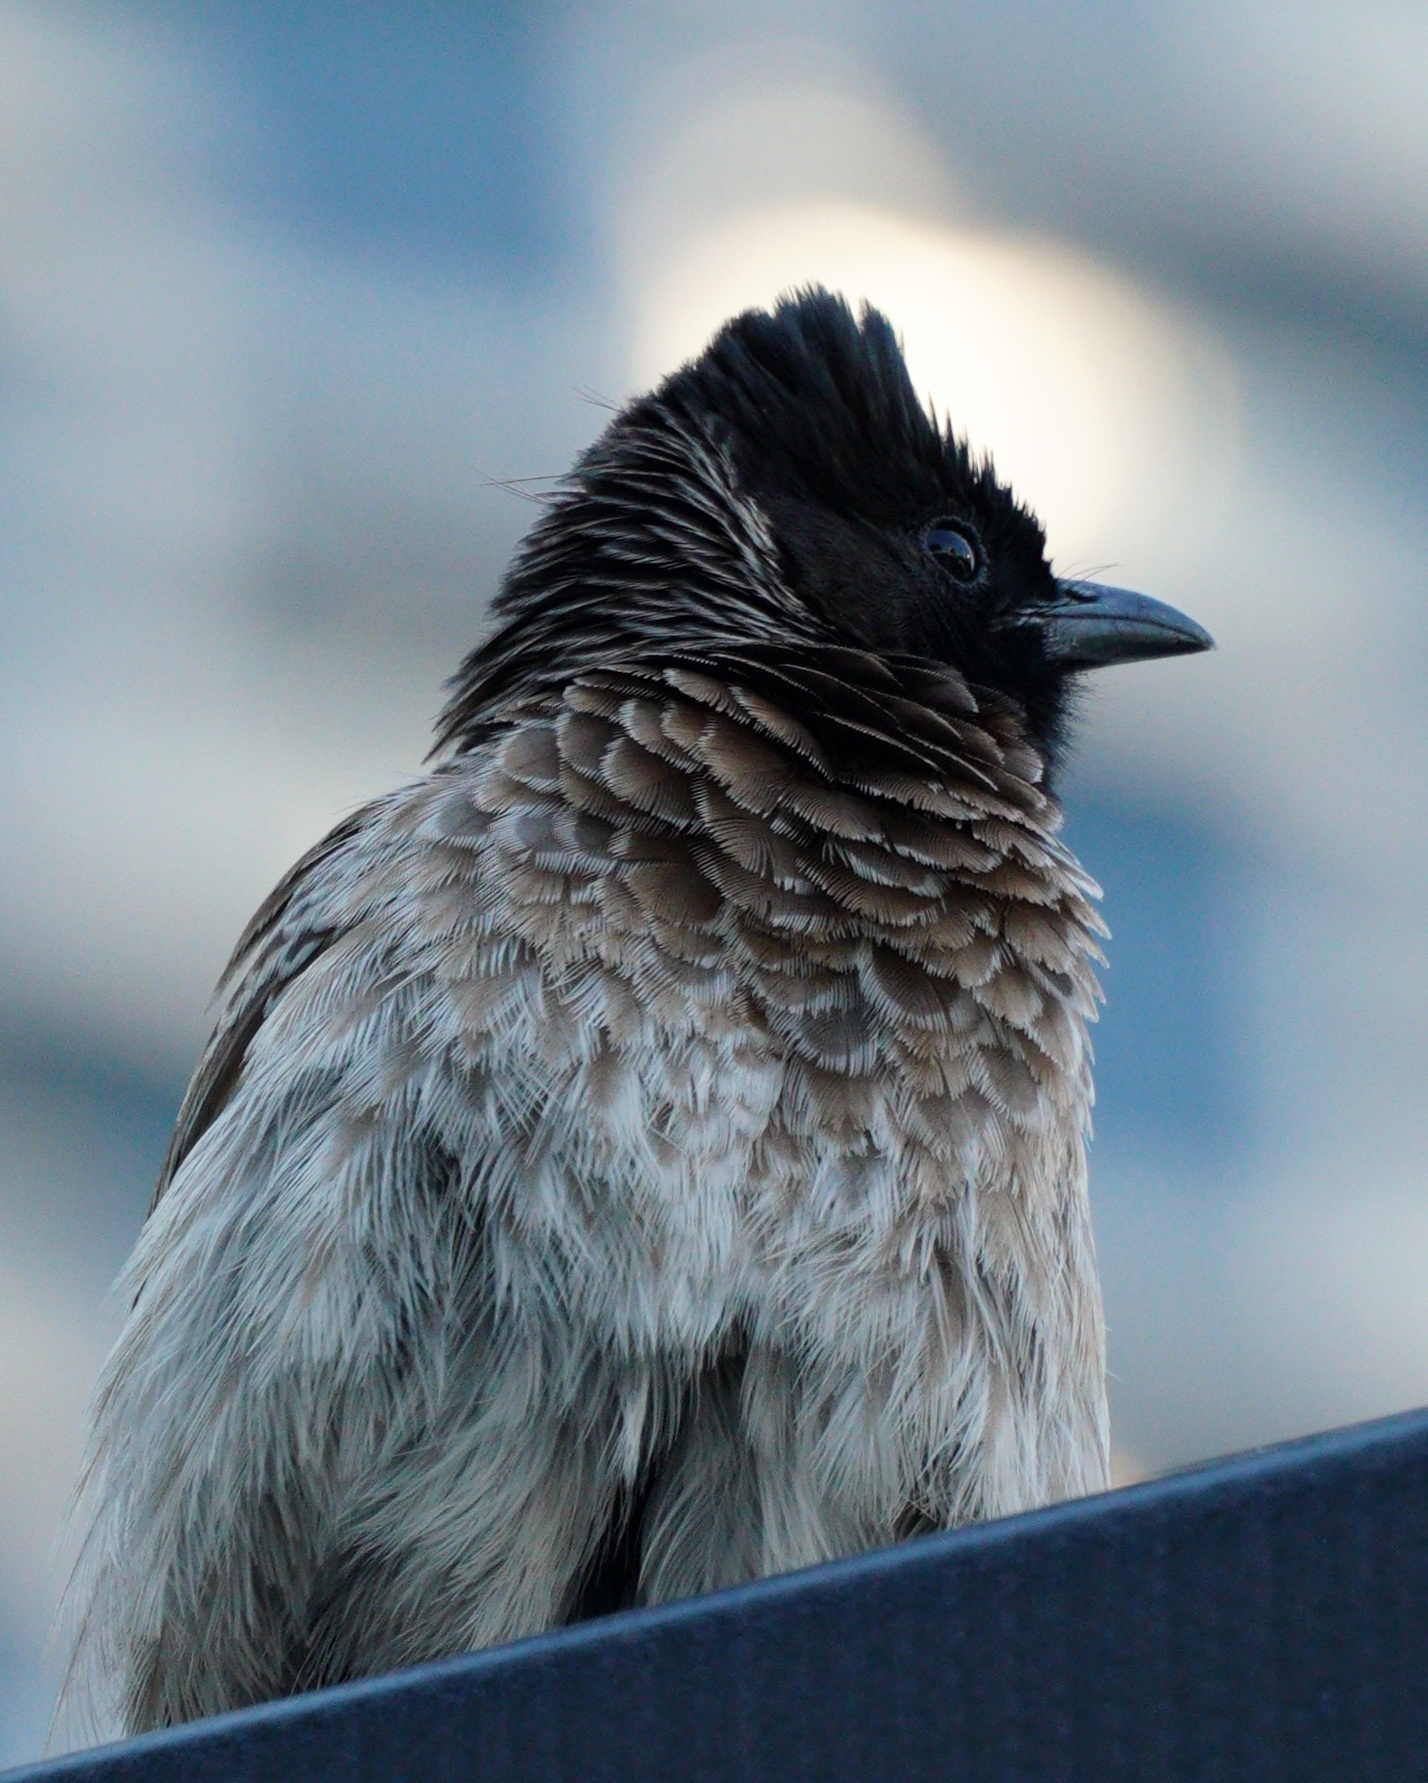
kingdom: Animalia
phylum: Chordata
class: Aves
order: Passeriformes
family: Pycnonotidae
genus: Pycnonotus
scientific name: Pycnonotus cafer
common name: Red-vented bulbul
